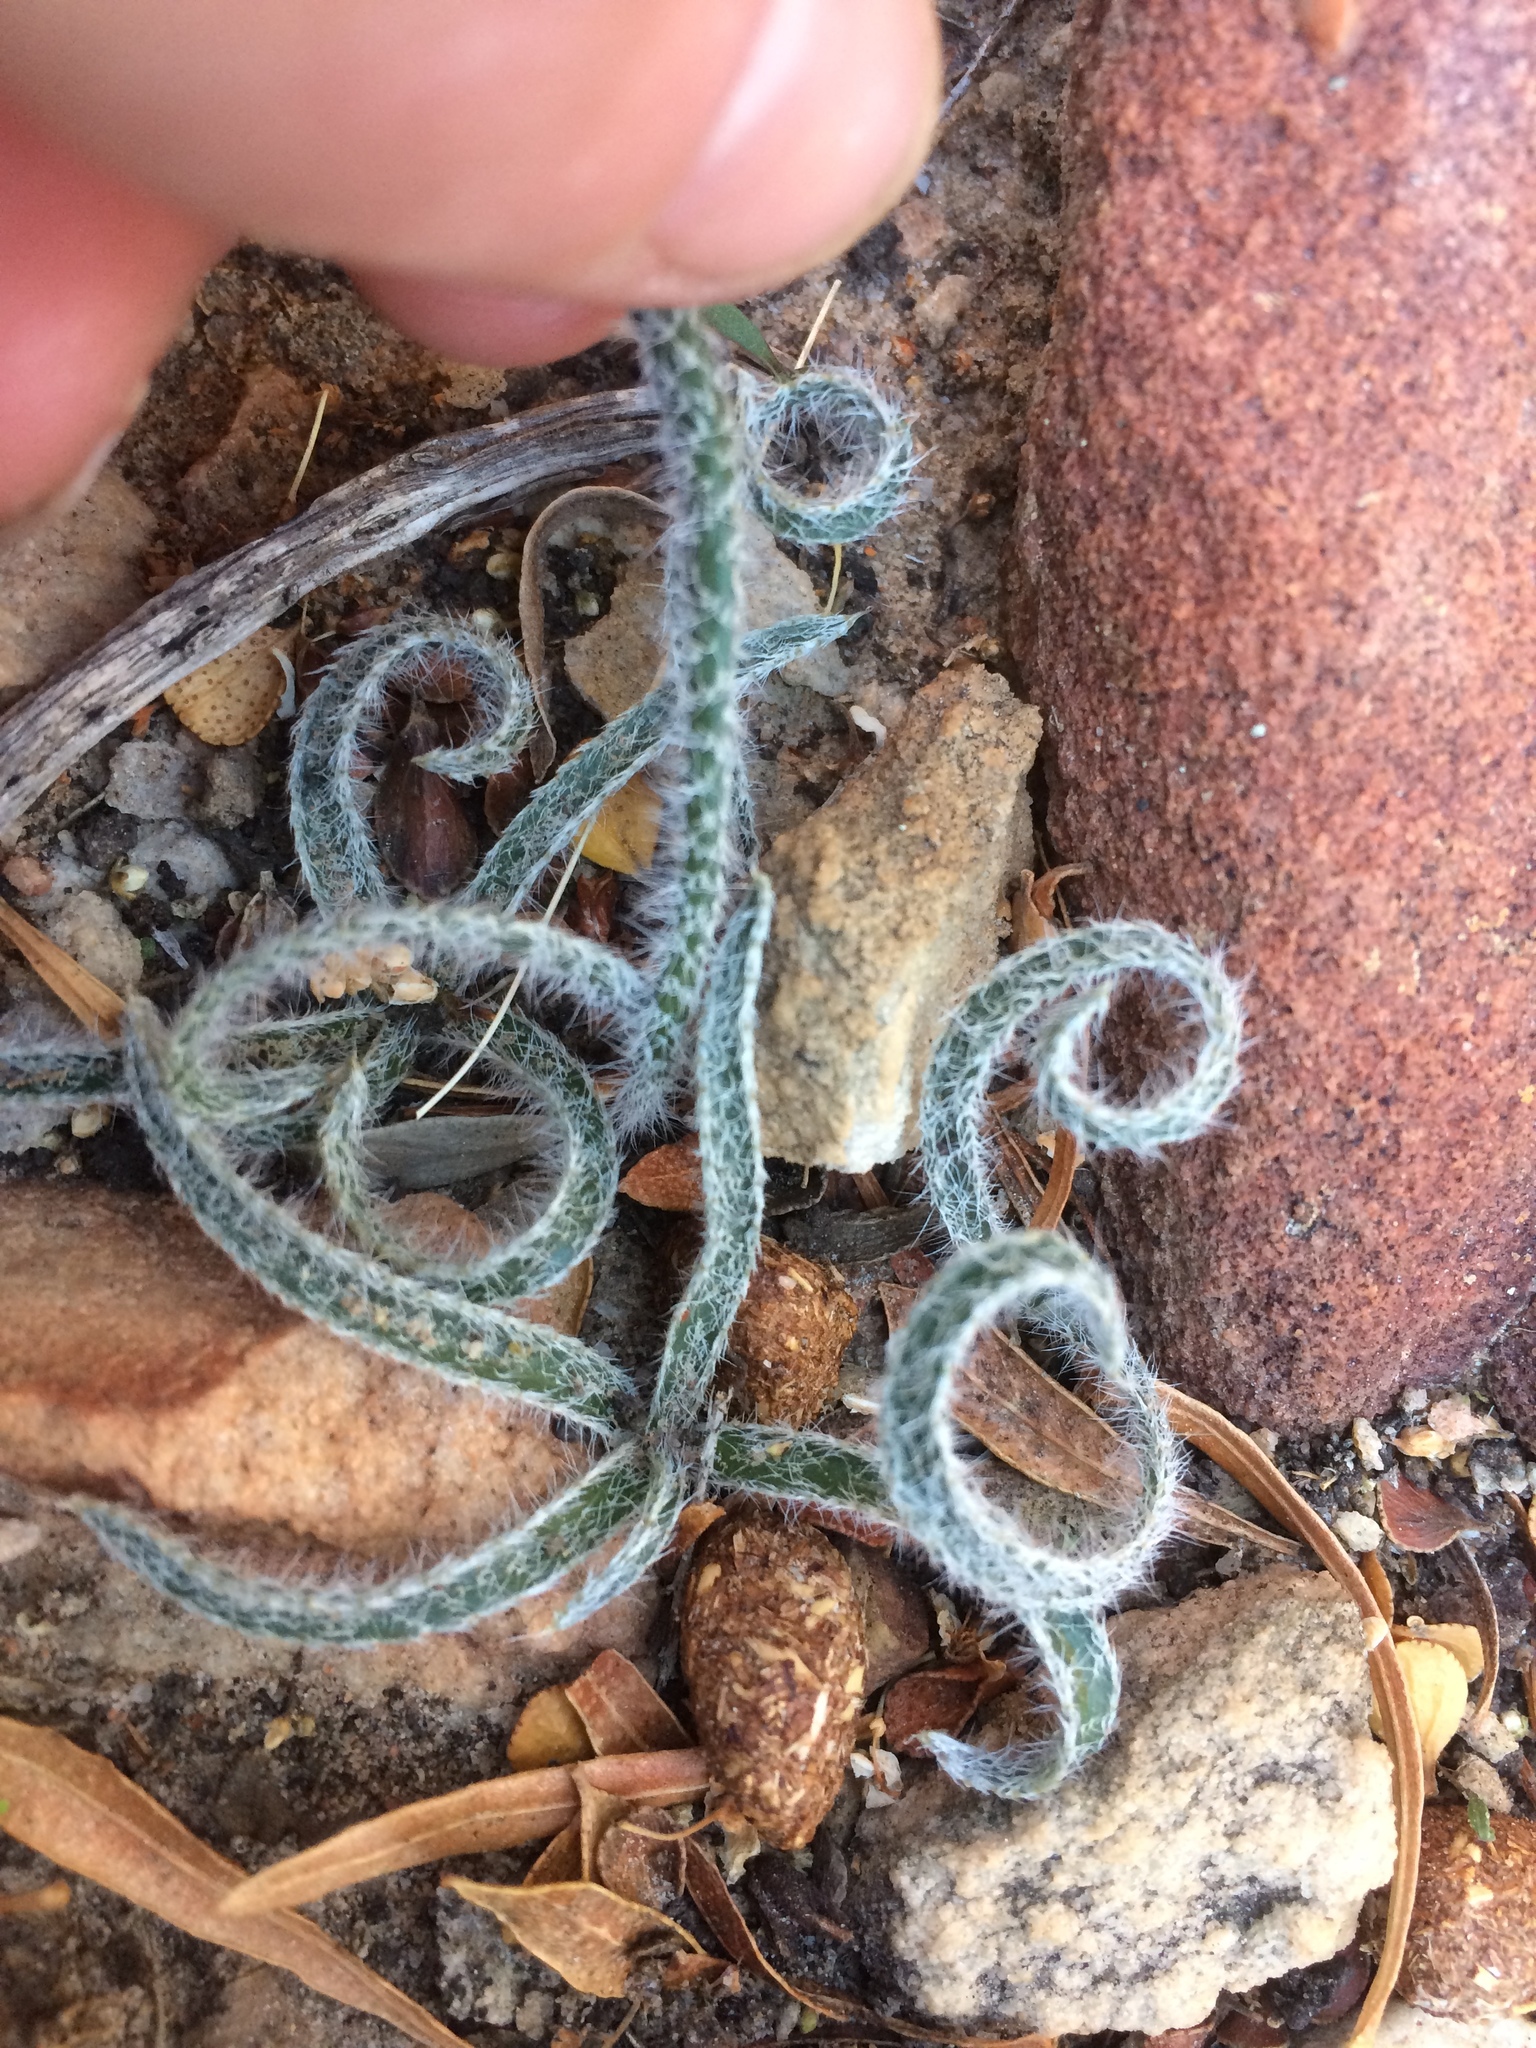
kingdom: Plantae
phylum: Tracheophyta
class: Liliopsida
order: Asparagales
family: Amaryllidaceae
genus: Gethyllis
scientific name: Gethyllis villosa
